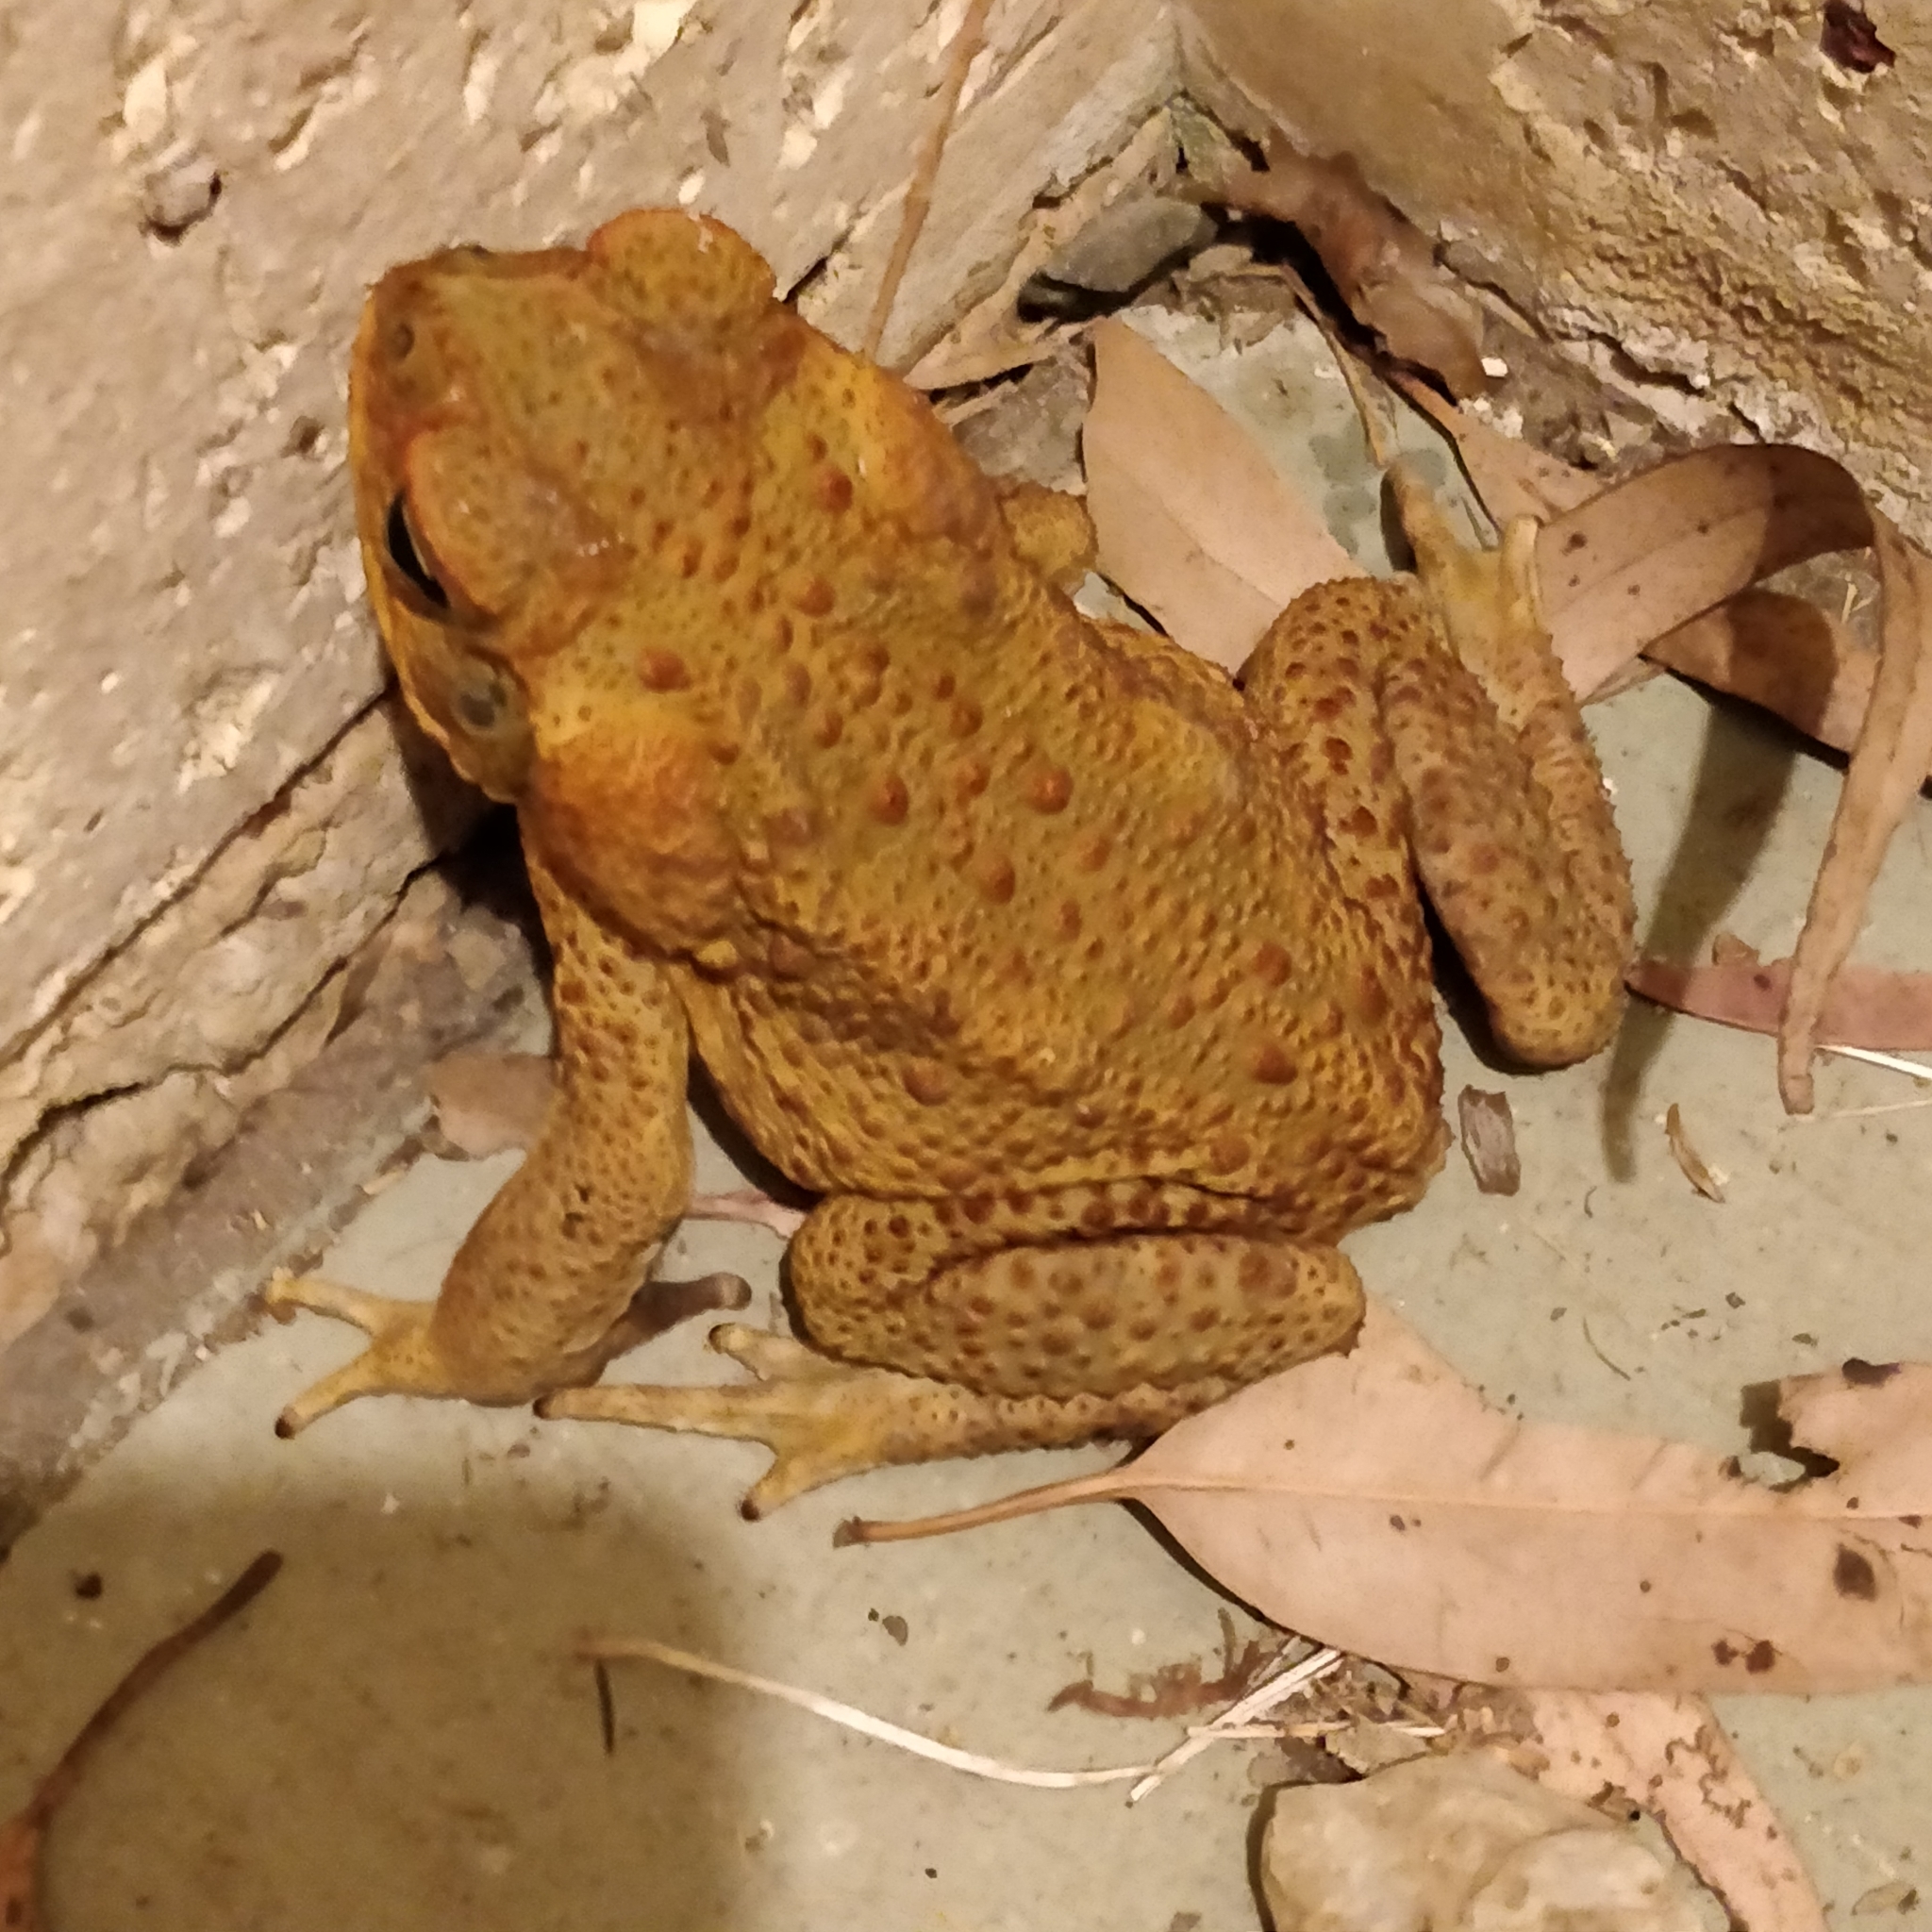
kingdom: Animalia
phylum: Chordata
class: Amphibia
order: Anura
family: Bufonidae
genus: Rhinella
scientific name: Rhinella marina
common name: Cane toad
